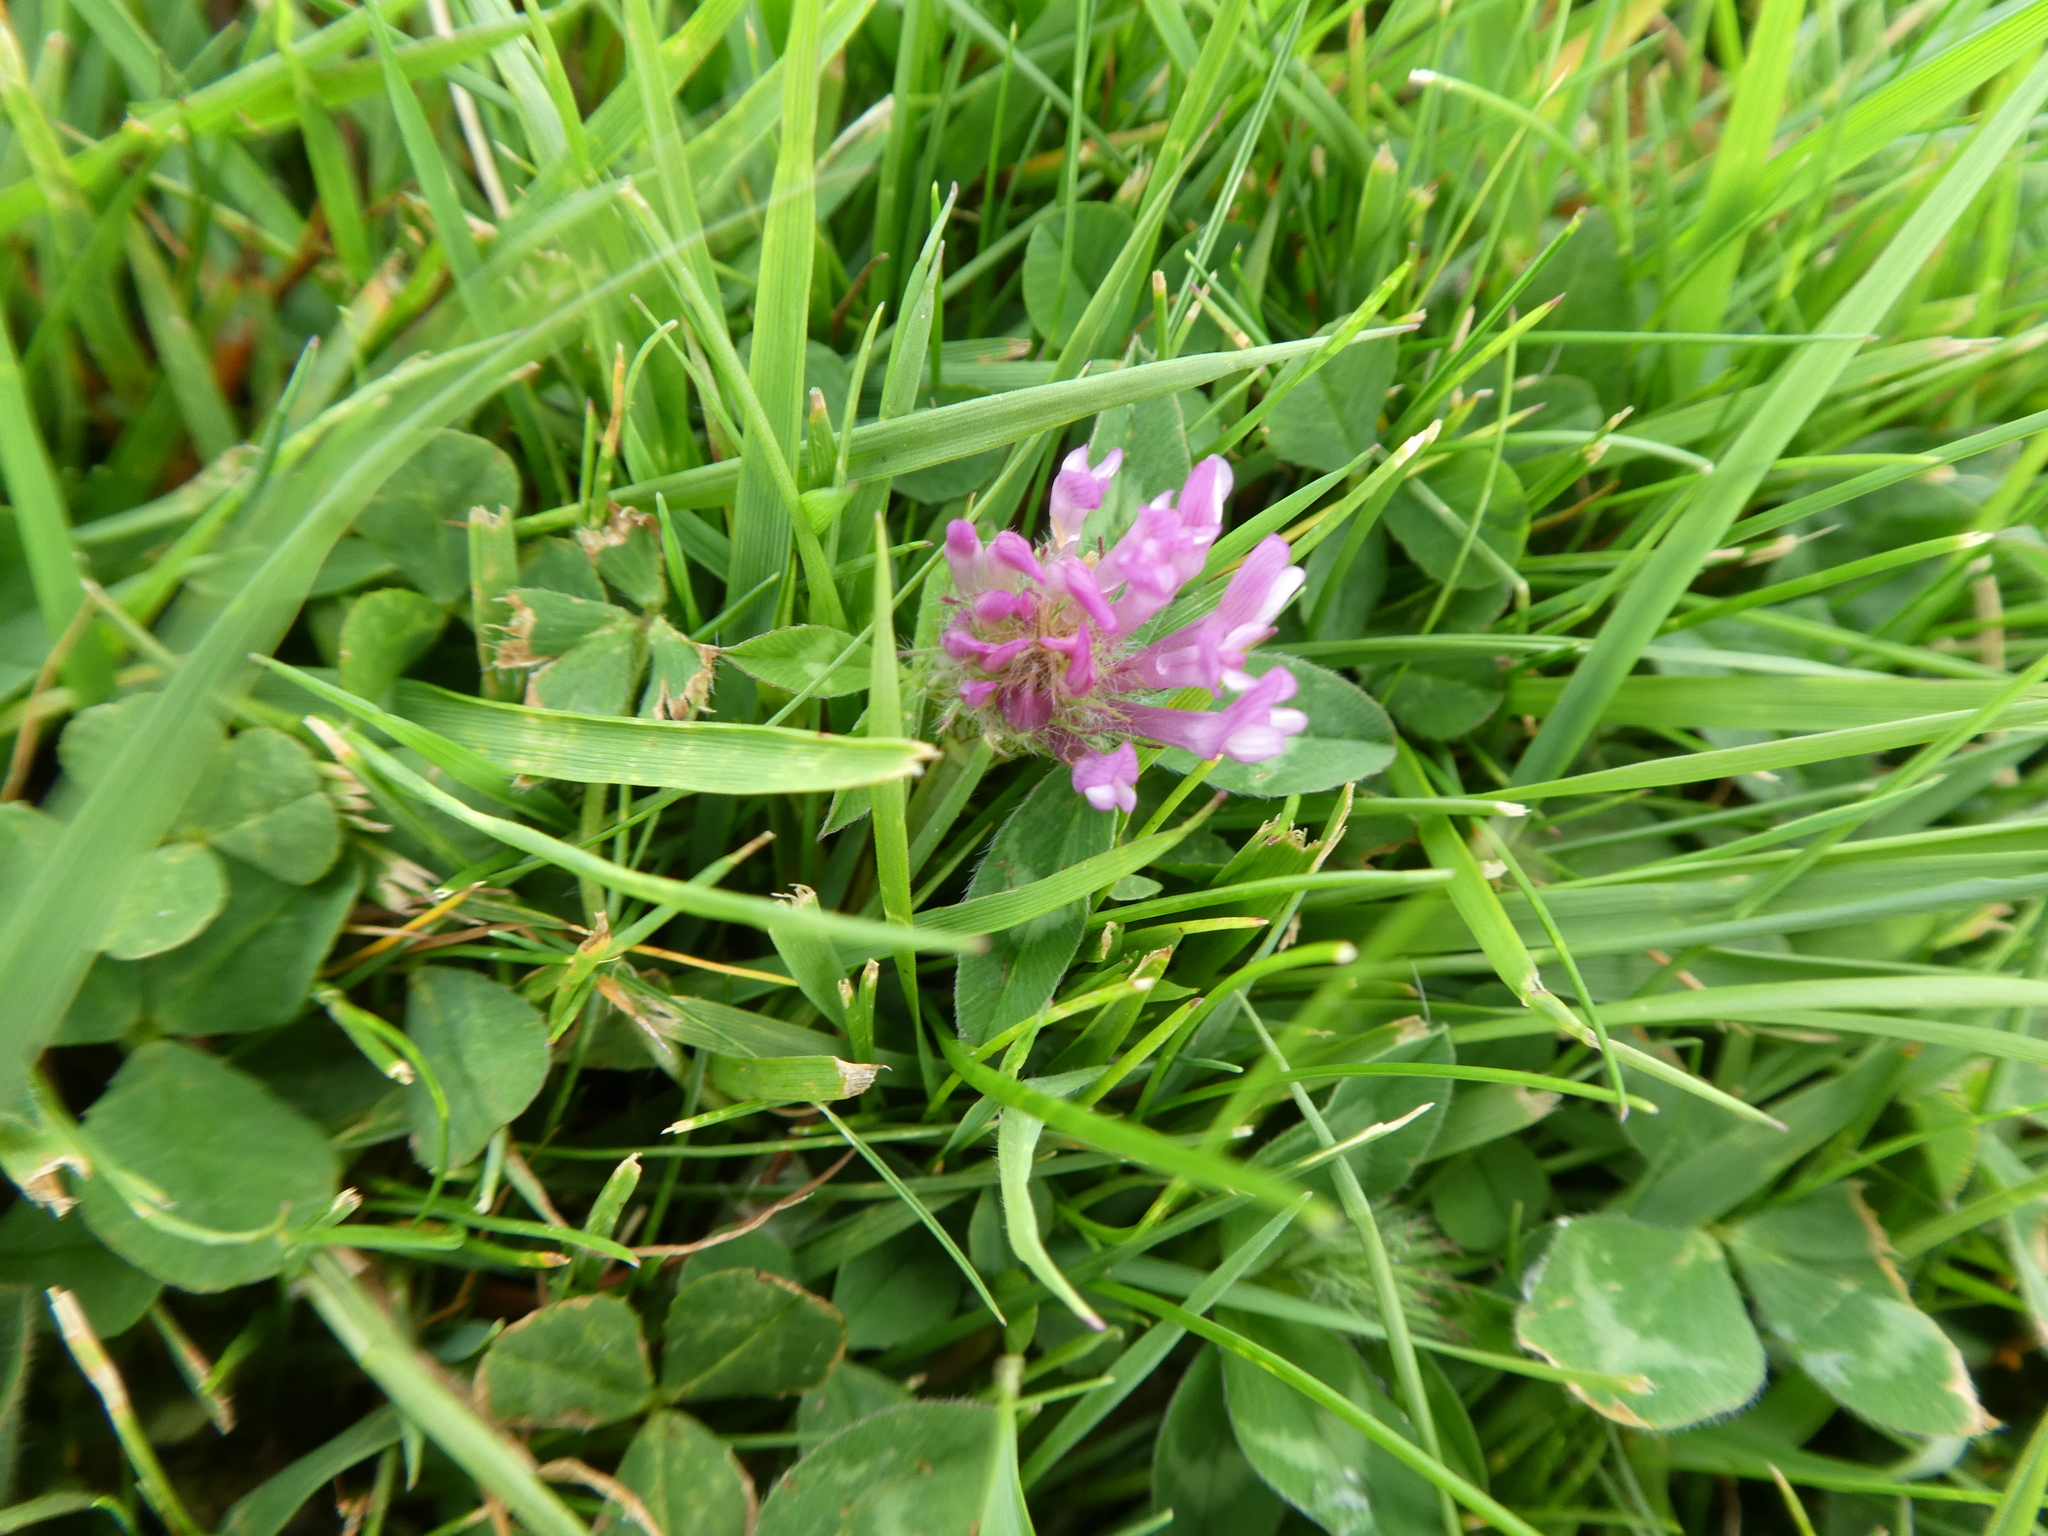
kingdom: Plantae
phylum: Tracheophyta
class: Magnoliopsida
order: Fabales
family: Fabaceae
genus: Trifolium
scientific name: Trifolium pratense
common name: Red clover
